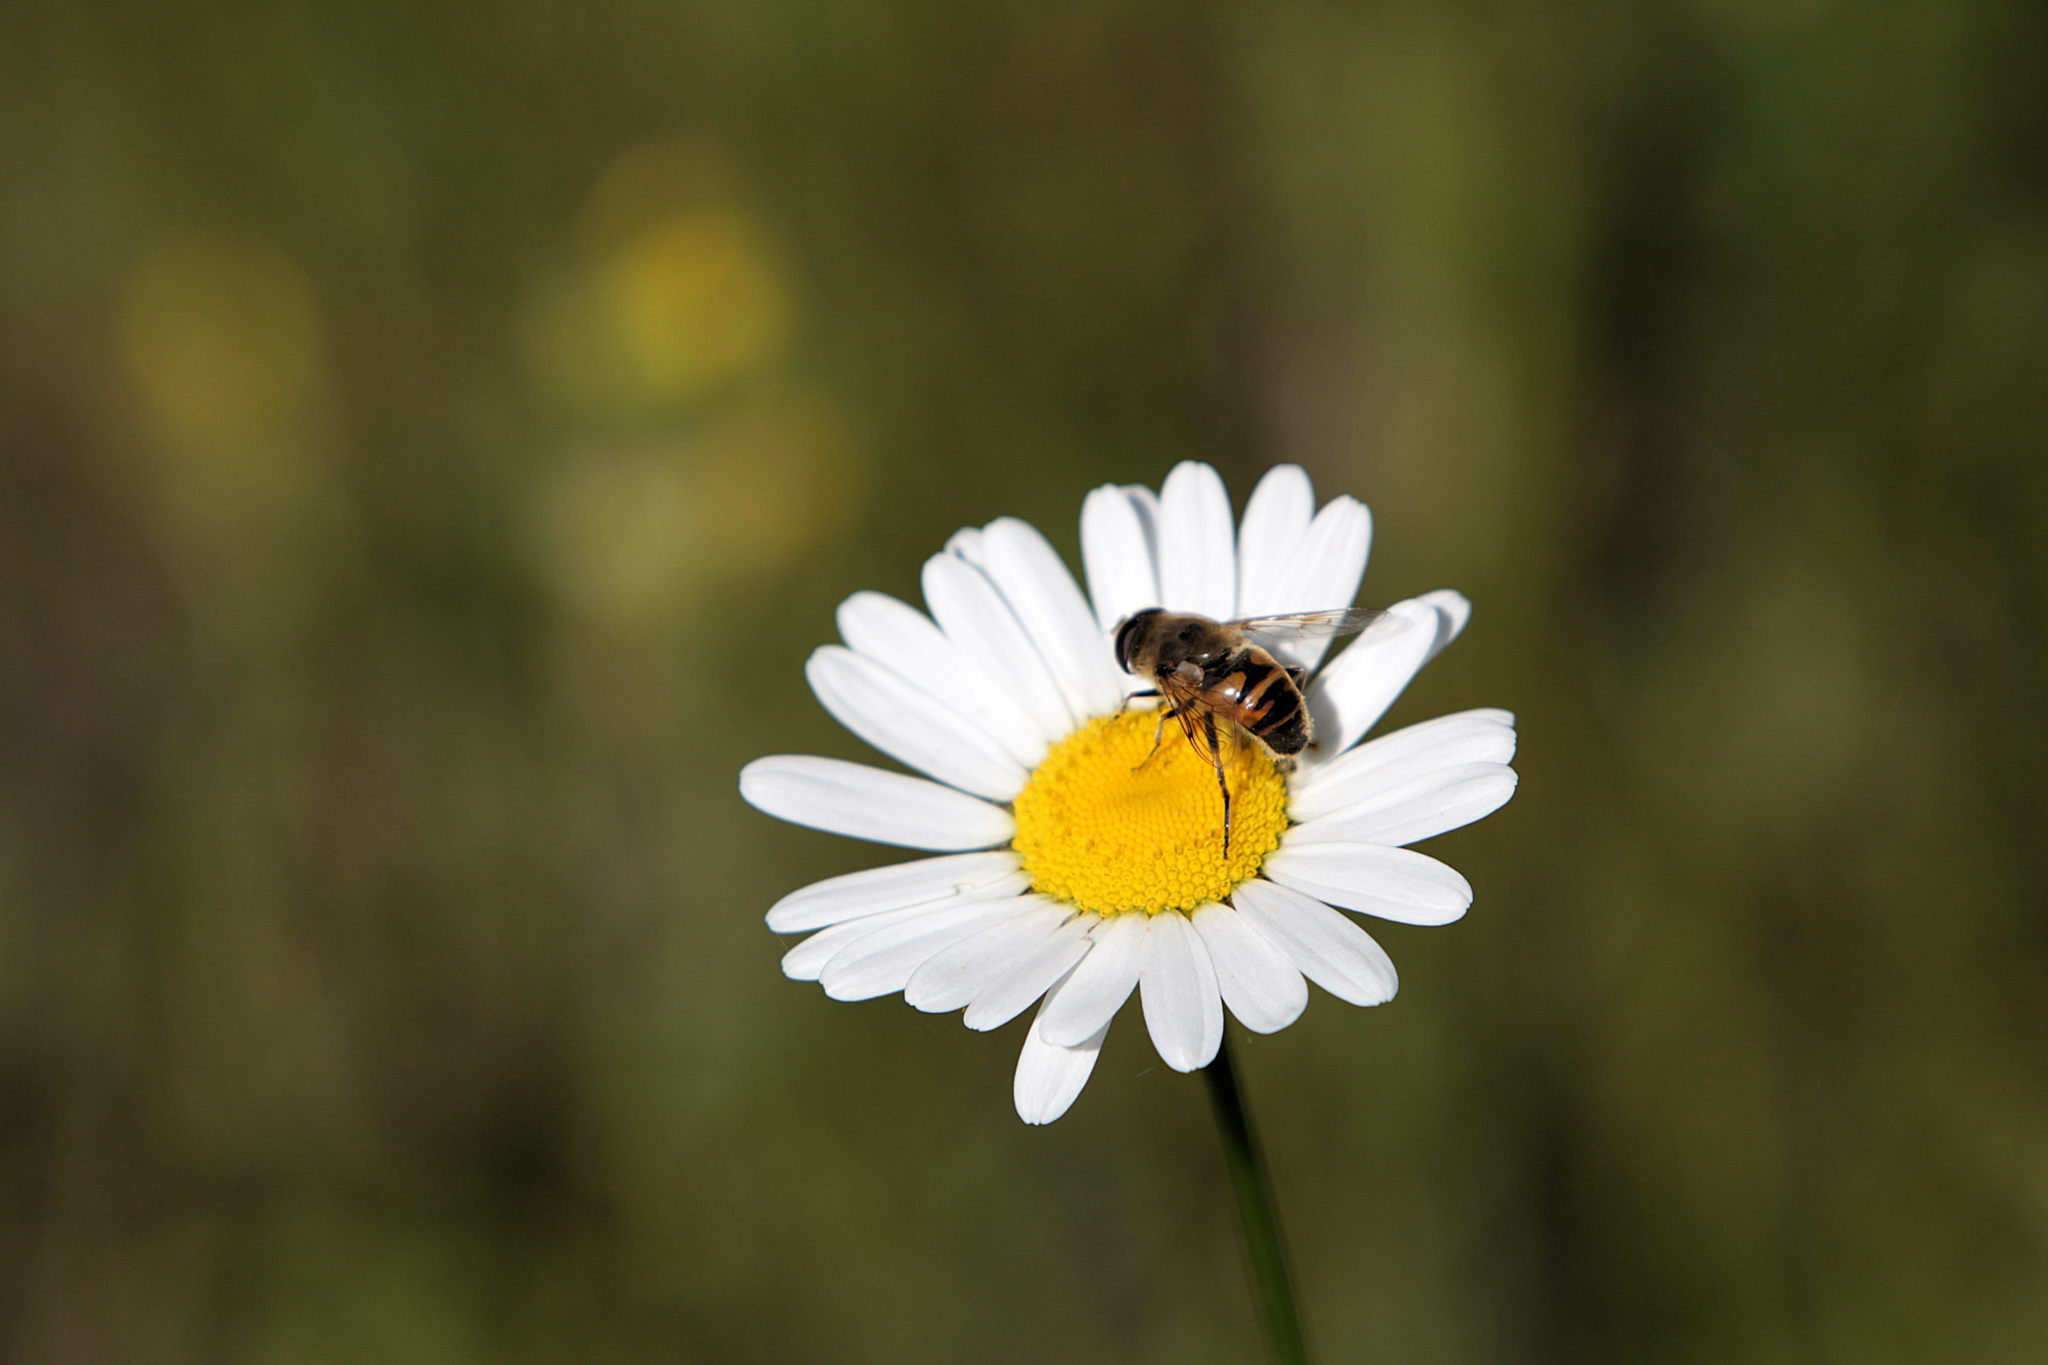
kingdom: Animalia
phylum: Arthropoda
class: Insecta
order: Diptera
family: Syrphidae
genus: Eristalis
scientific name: Eristalis tenax
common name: Drone fly
